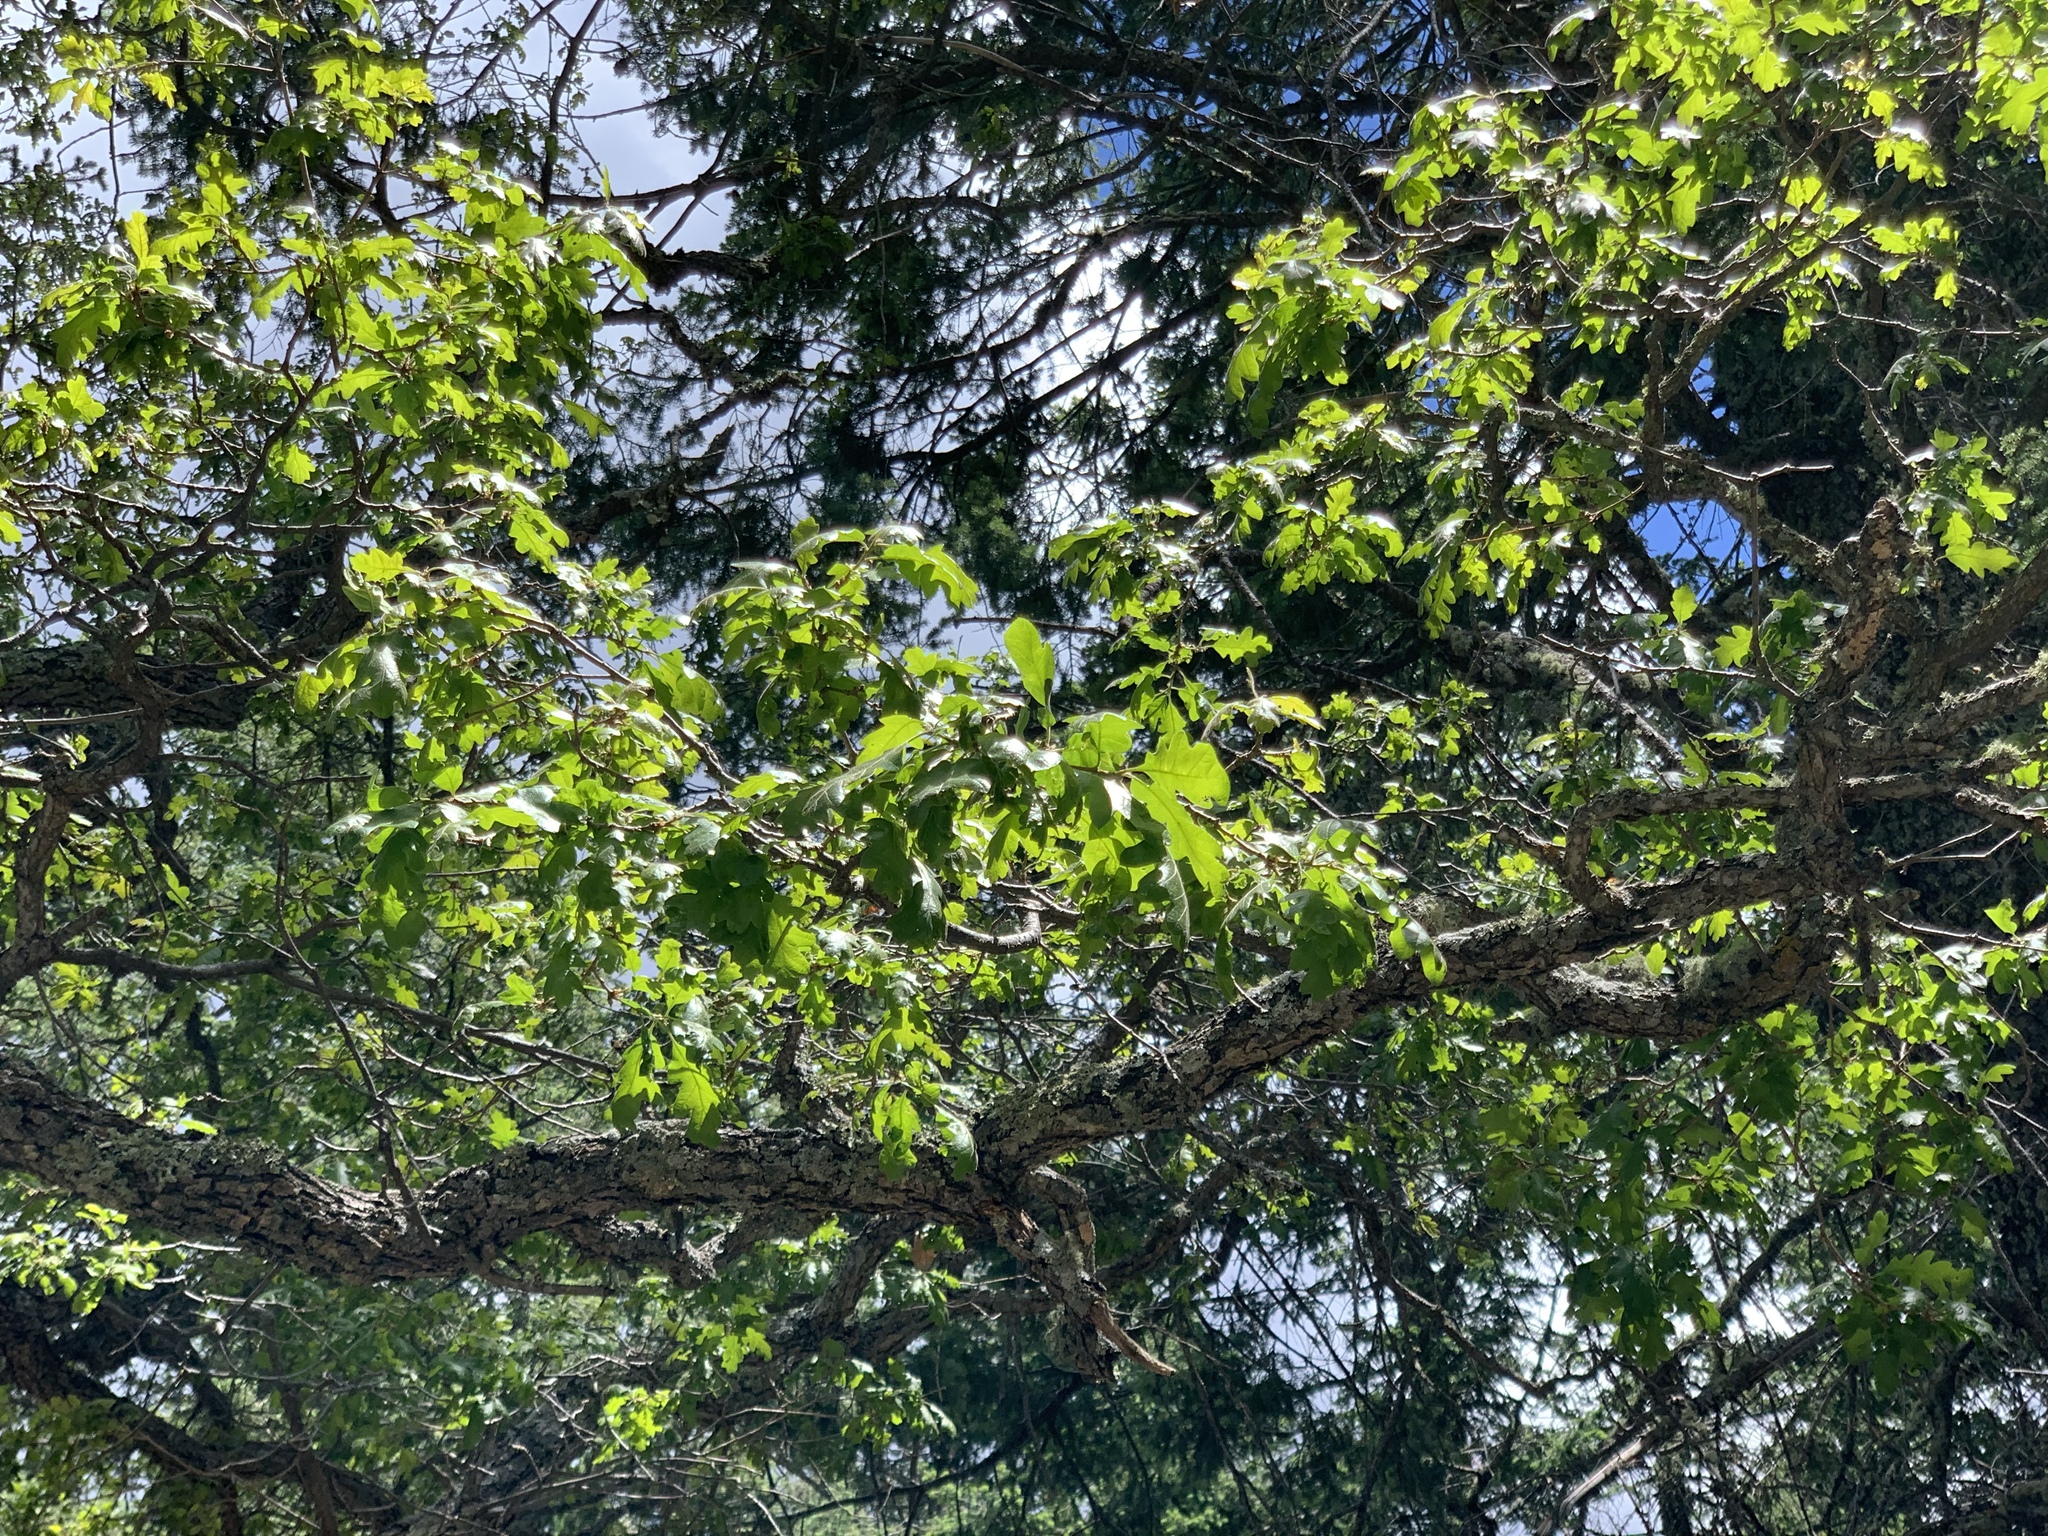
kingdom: Plantae
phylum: Tracheophyta
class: Magnoliopsida
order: Fagales
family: Fagaceae
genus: Quercus
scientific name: Quercus gambelii
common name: Gambel oak
